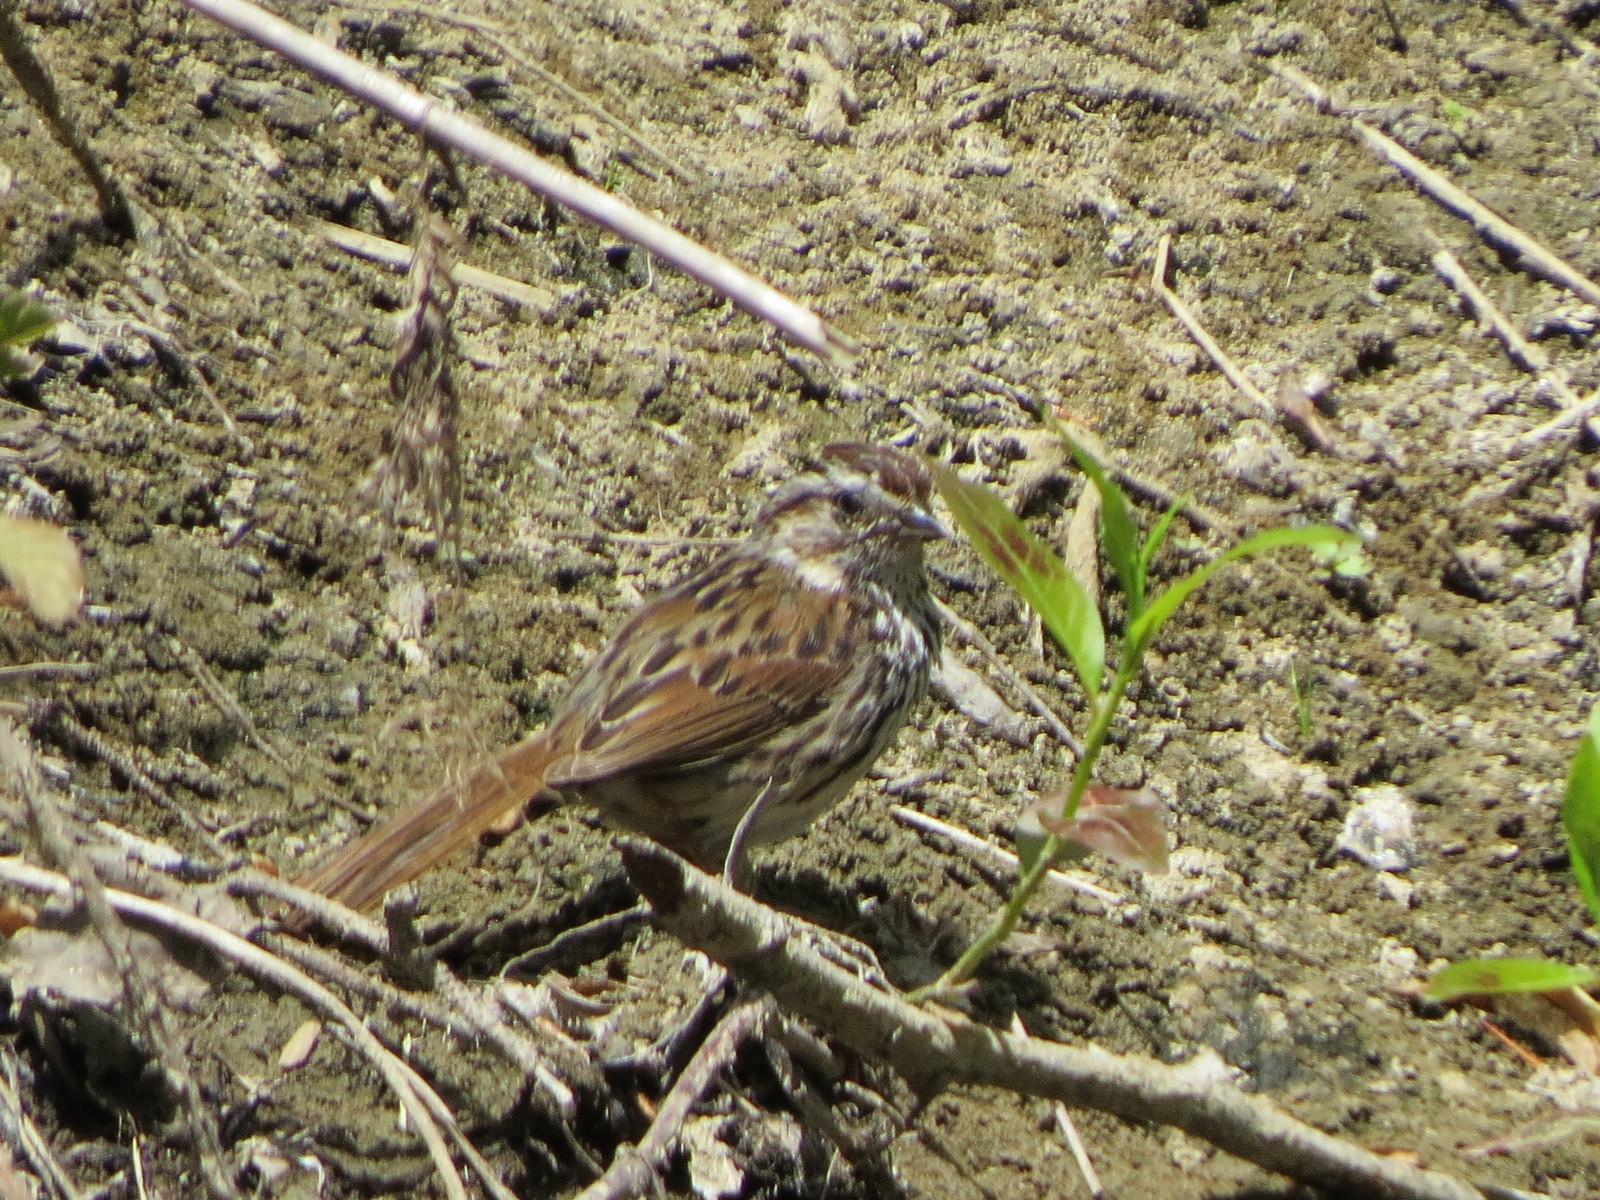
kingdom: Animalia
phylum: Chordata
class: Aves
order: Passeriformes
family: Passerellidae
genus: Melospiza
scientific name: Melospiza melodia
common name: Song sparrow
